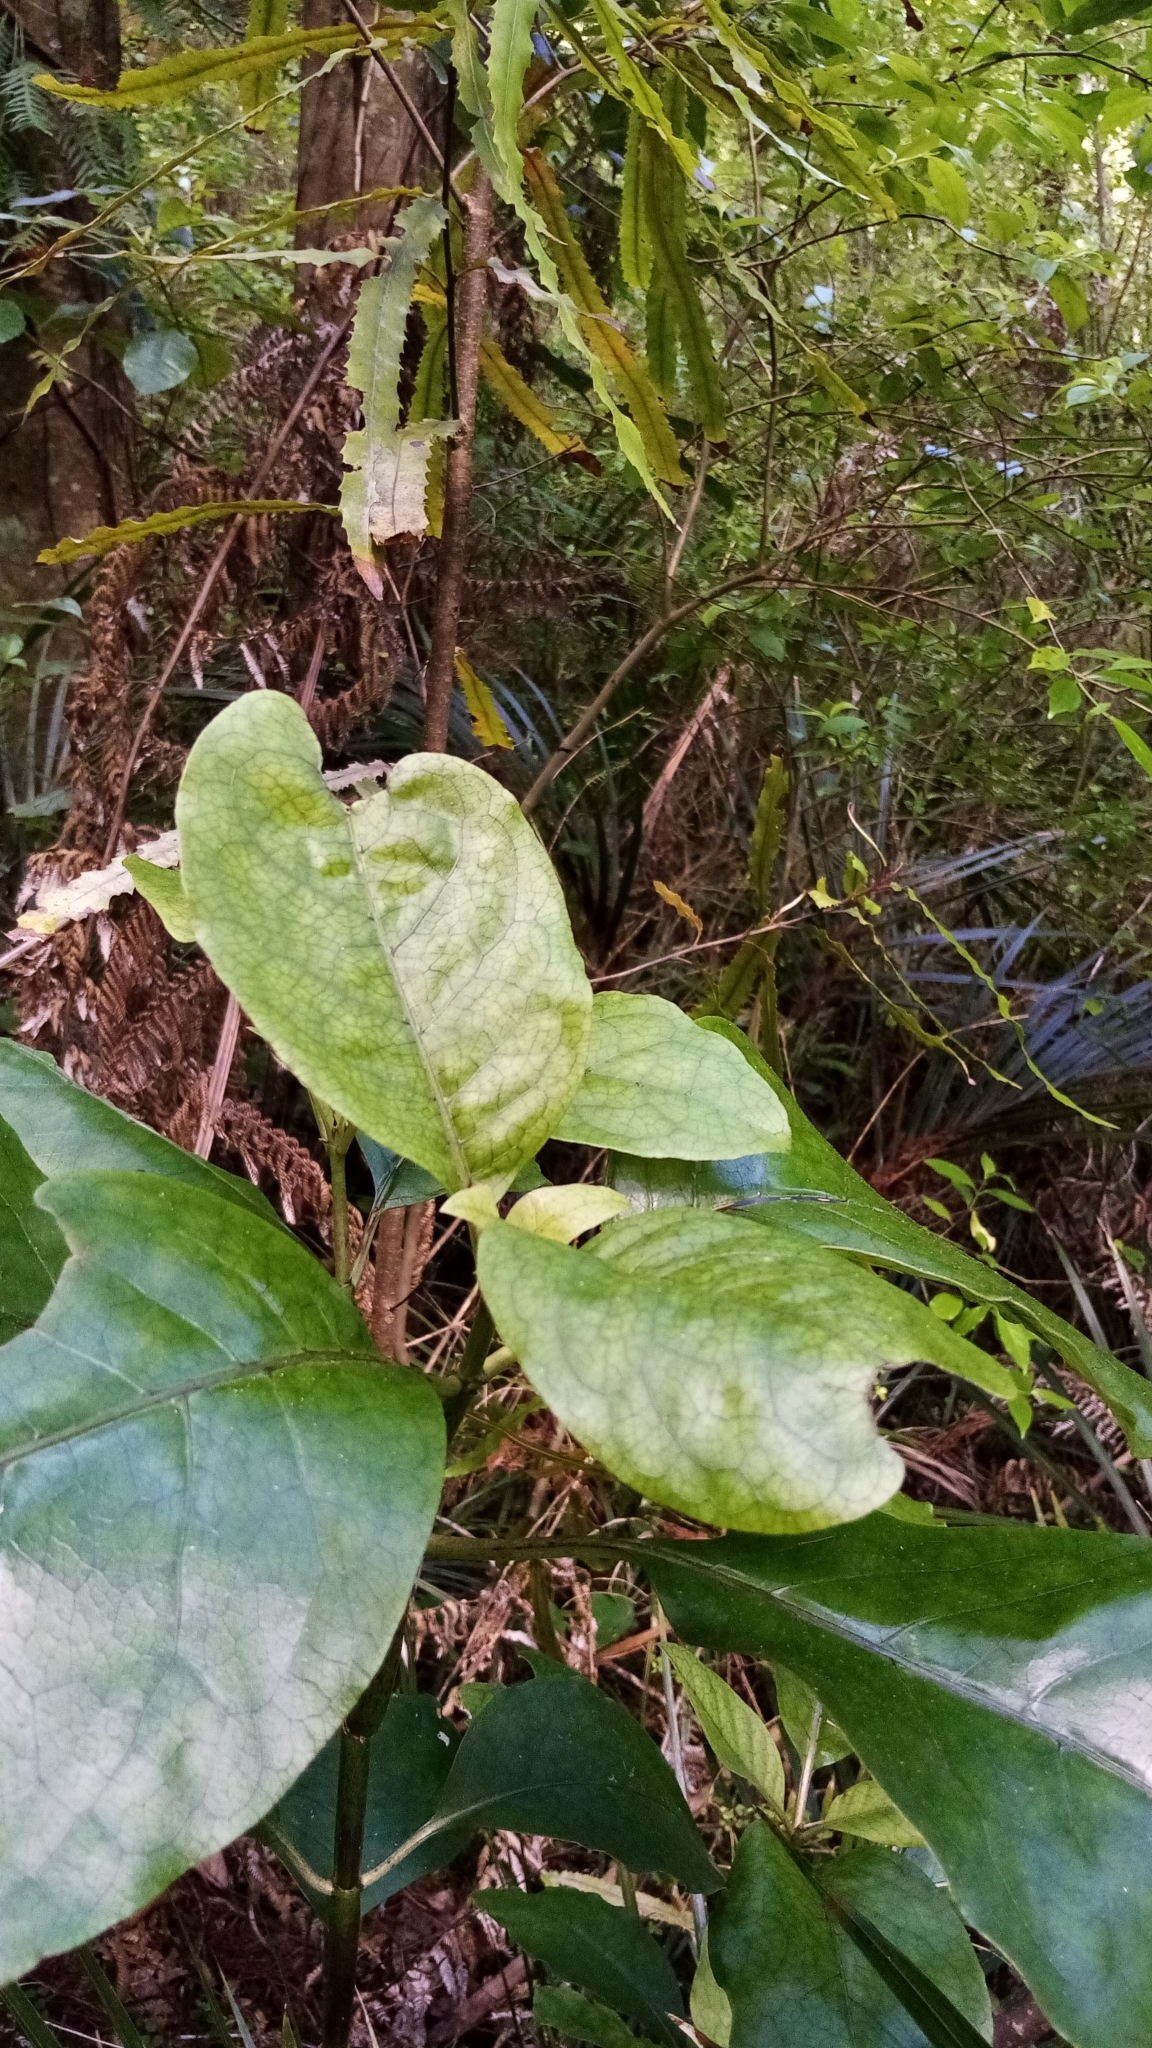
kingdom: Plantae
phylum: Tracheophyta
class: Magnoliopsida
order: Gentianales
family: Rubiaceae
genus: Coprosma
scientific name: Coprosma autumnalis
